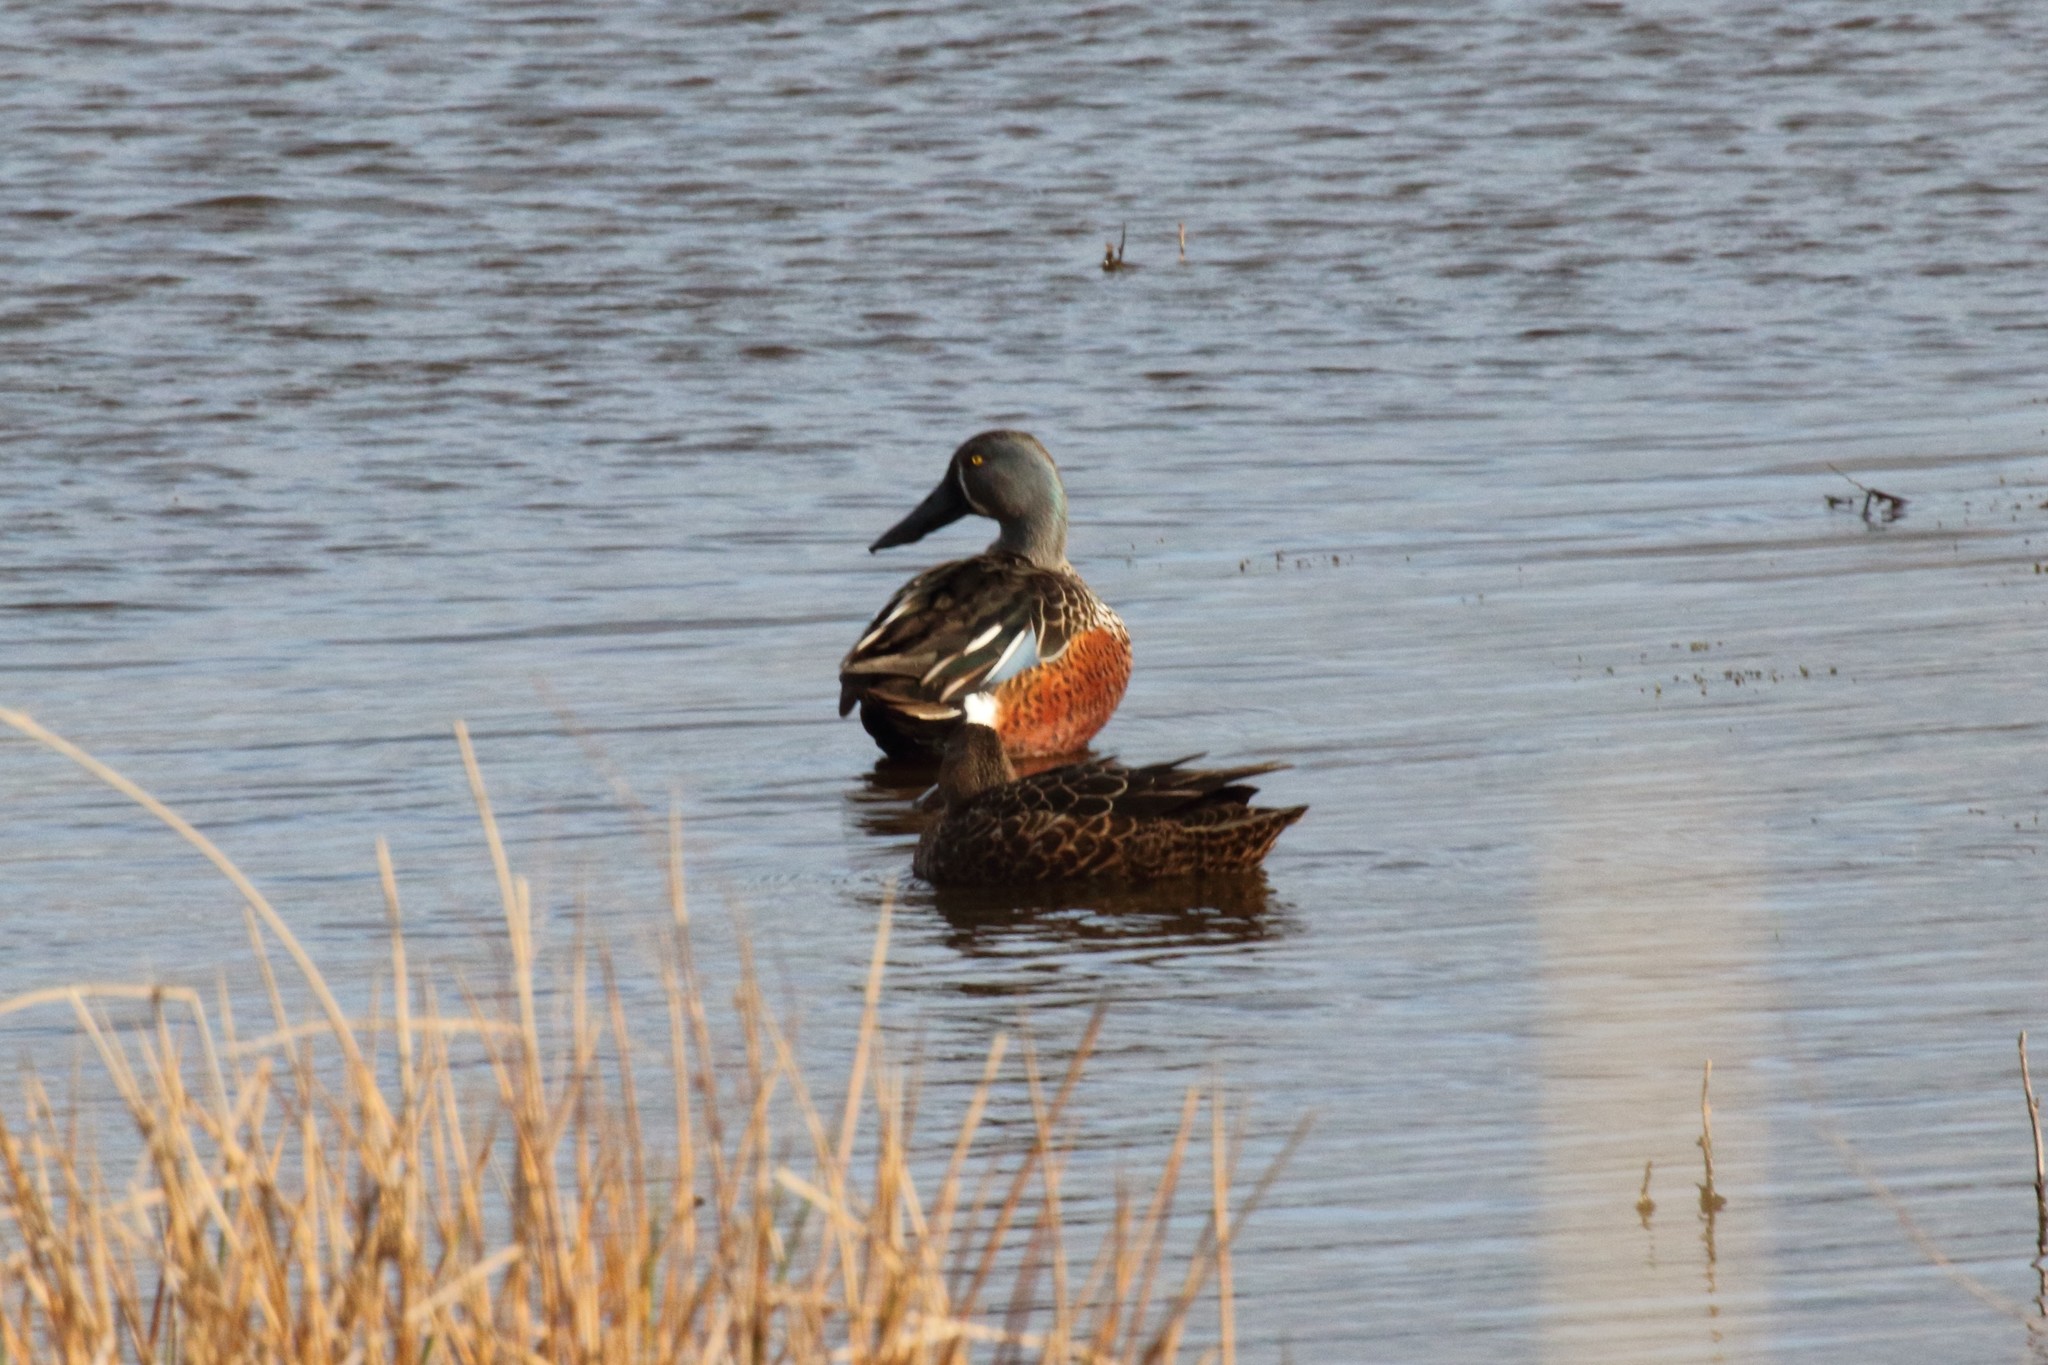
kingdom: Animalia
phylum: Chordata
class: Aves
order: Anseriformes
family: Anatidae
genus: Spatula
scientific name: Spatula rhynchotis
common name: Australian shoveler
